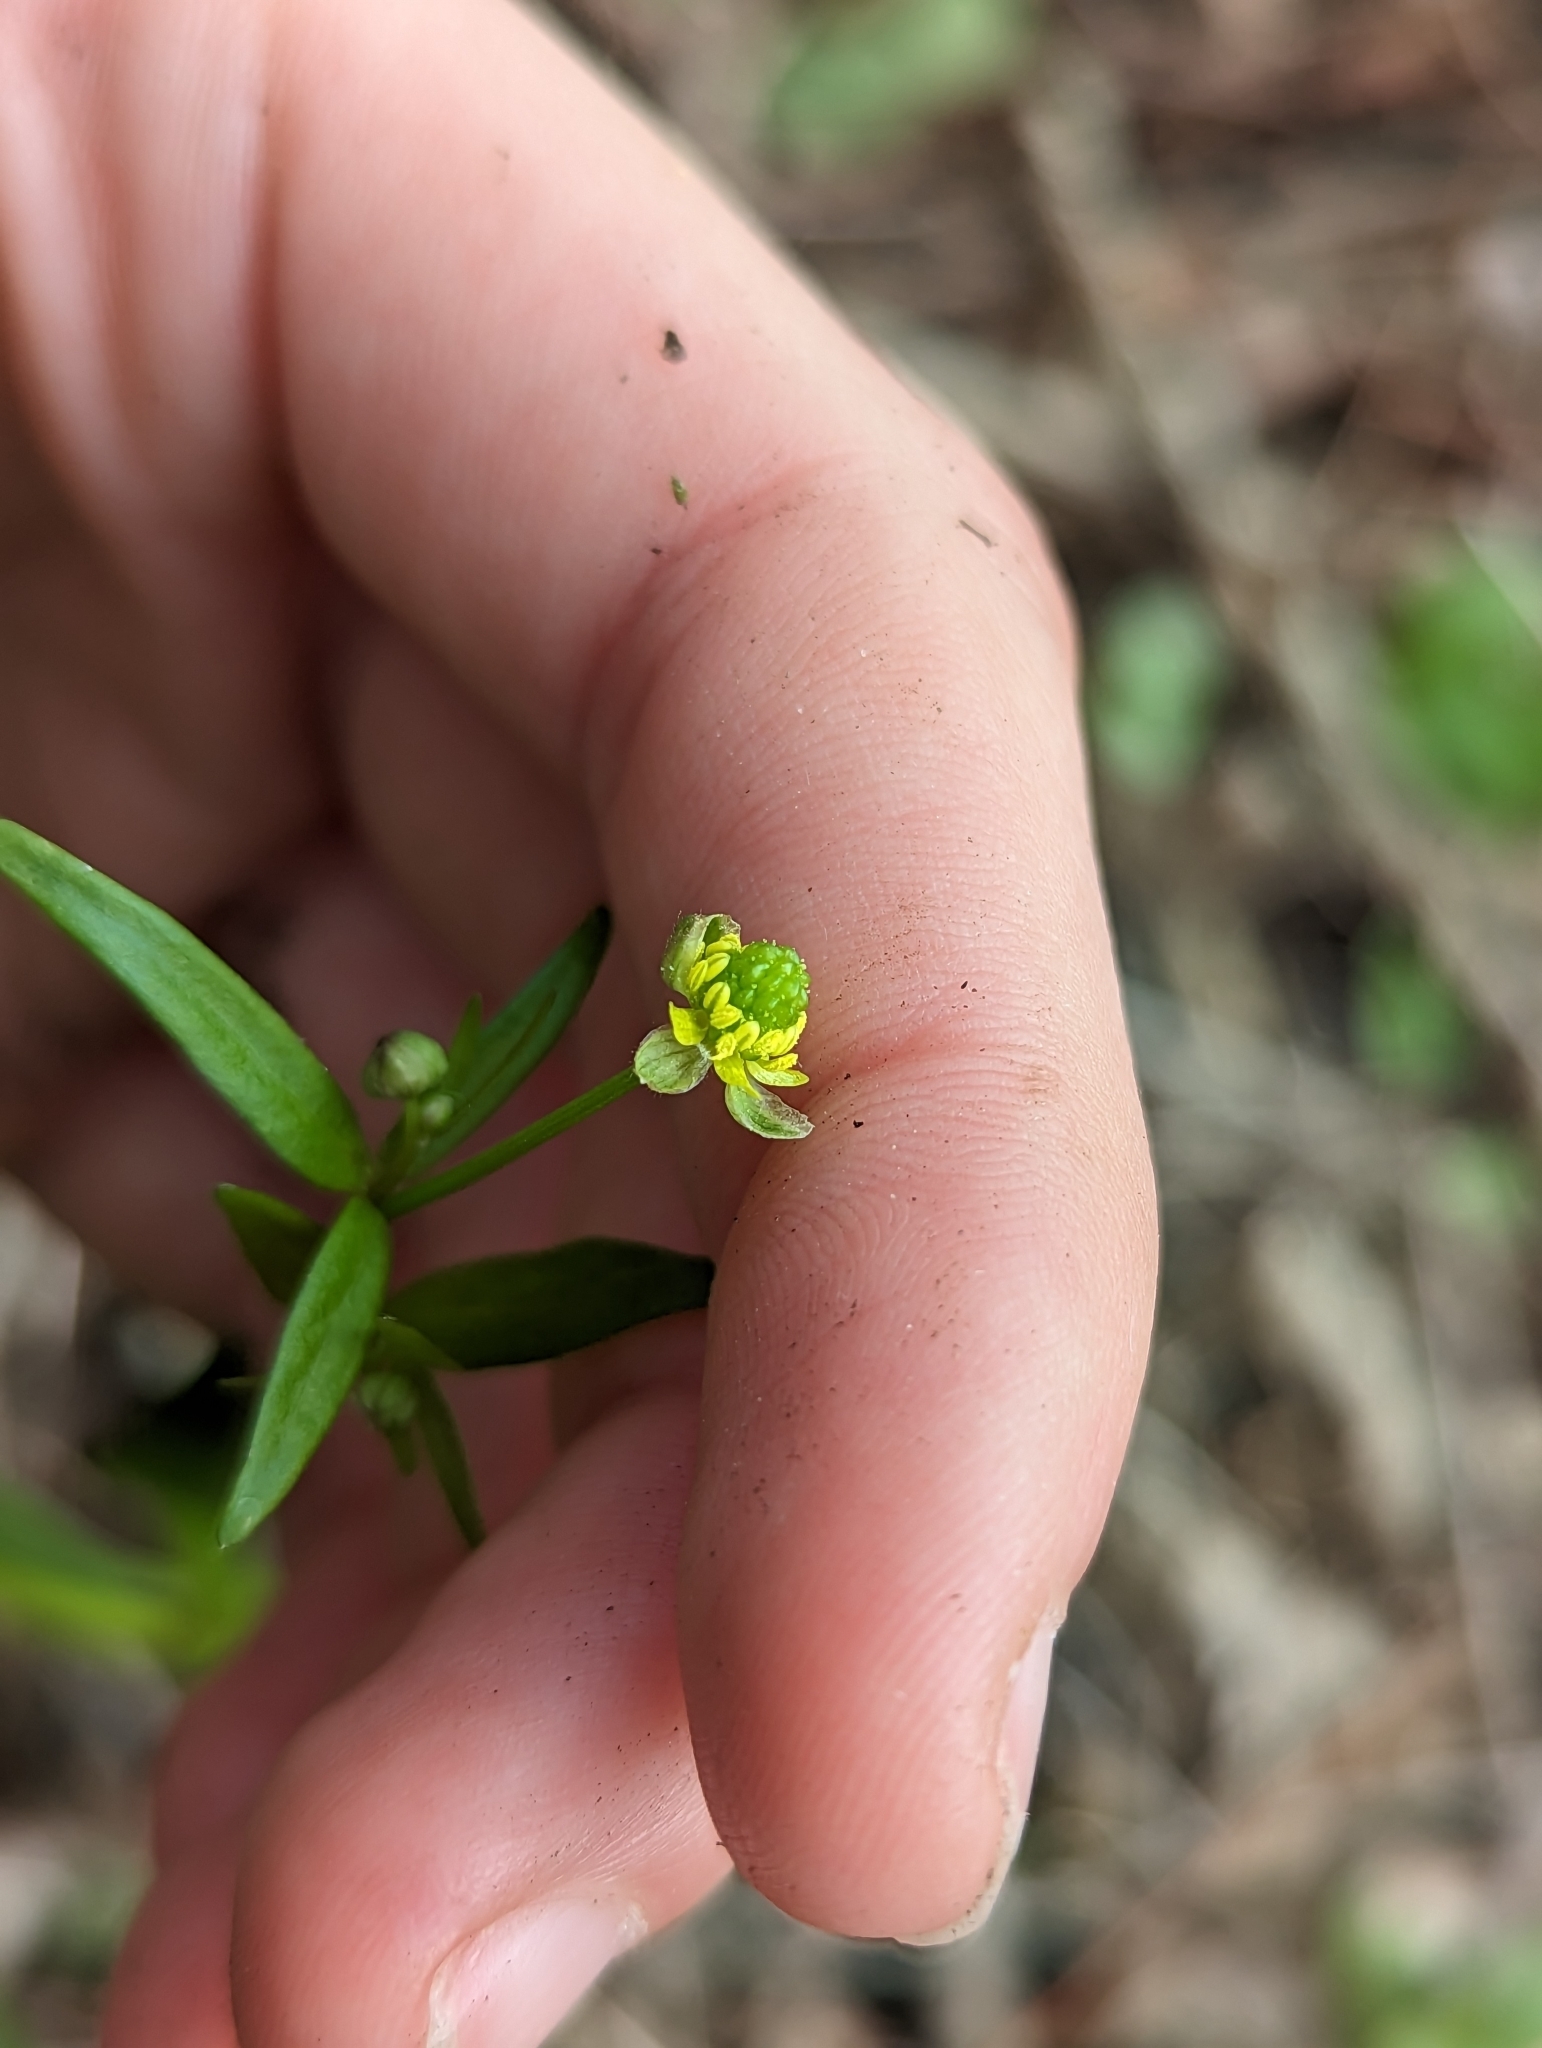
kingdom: Plantae
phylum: Tracheophyta
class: Magnoliopsida
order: Ranunculales
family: Ranunculaceae
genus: Ranunculus
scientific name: Ranunculus abortivus
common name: Early wood buttercup
